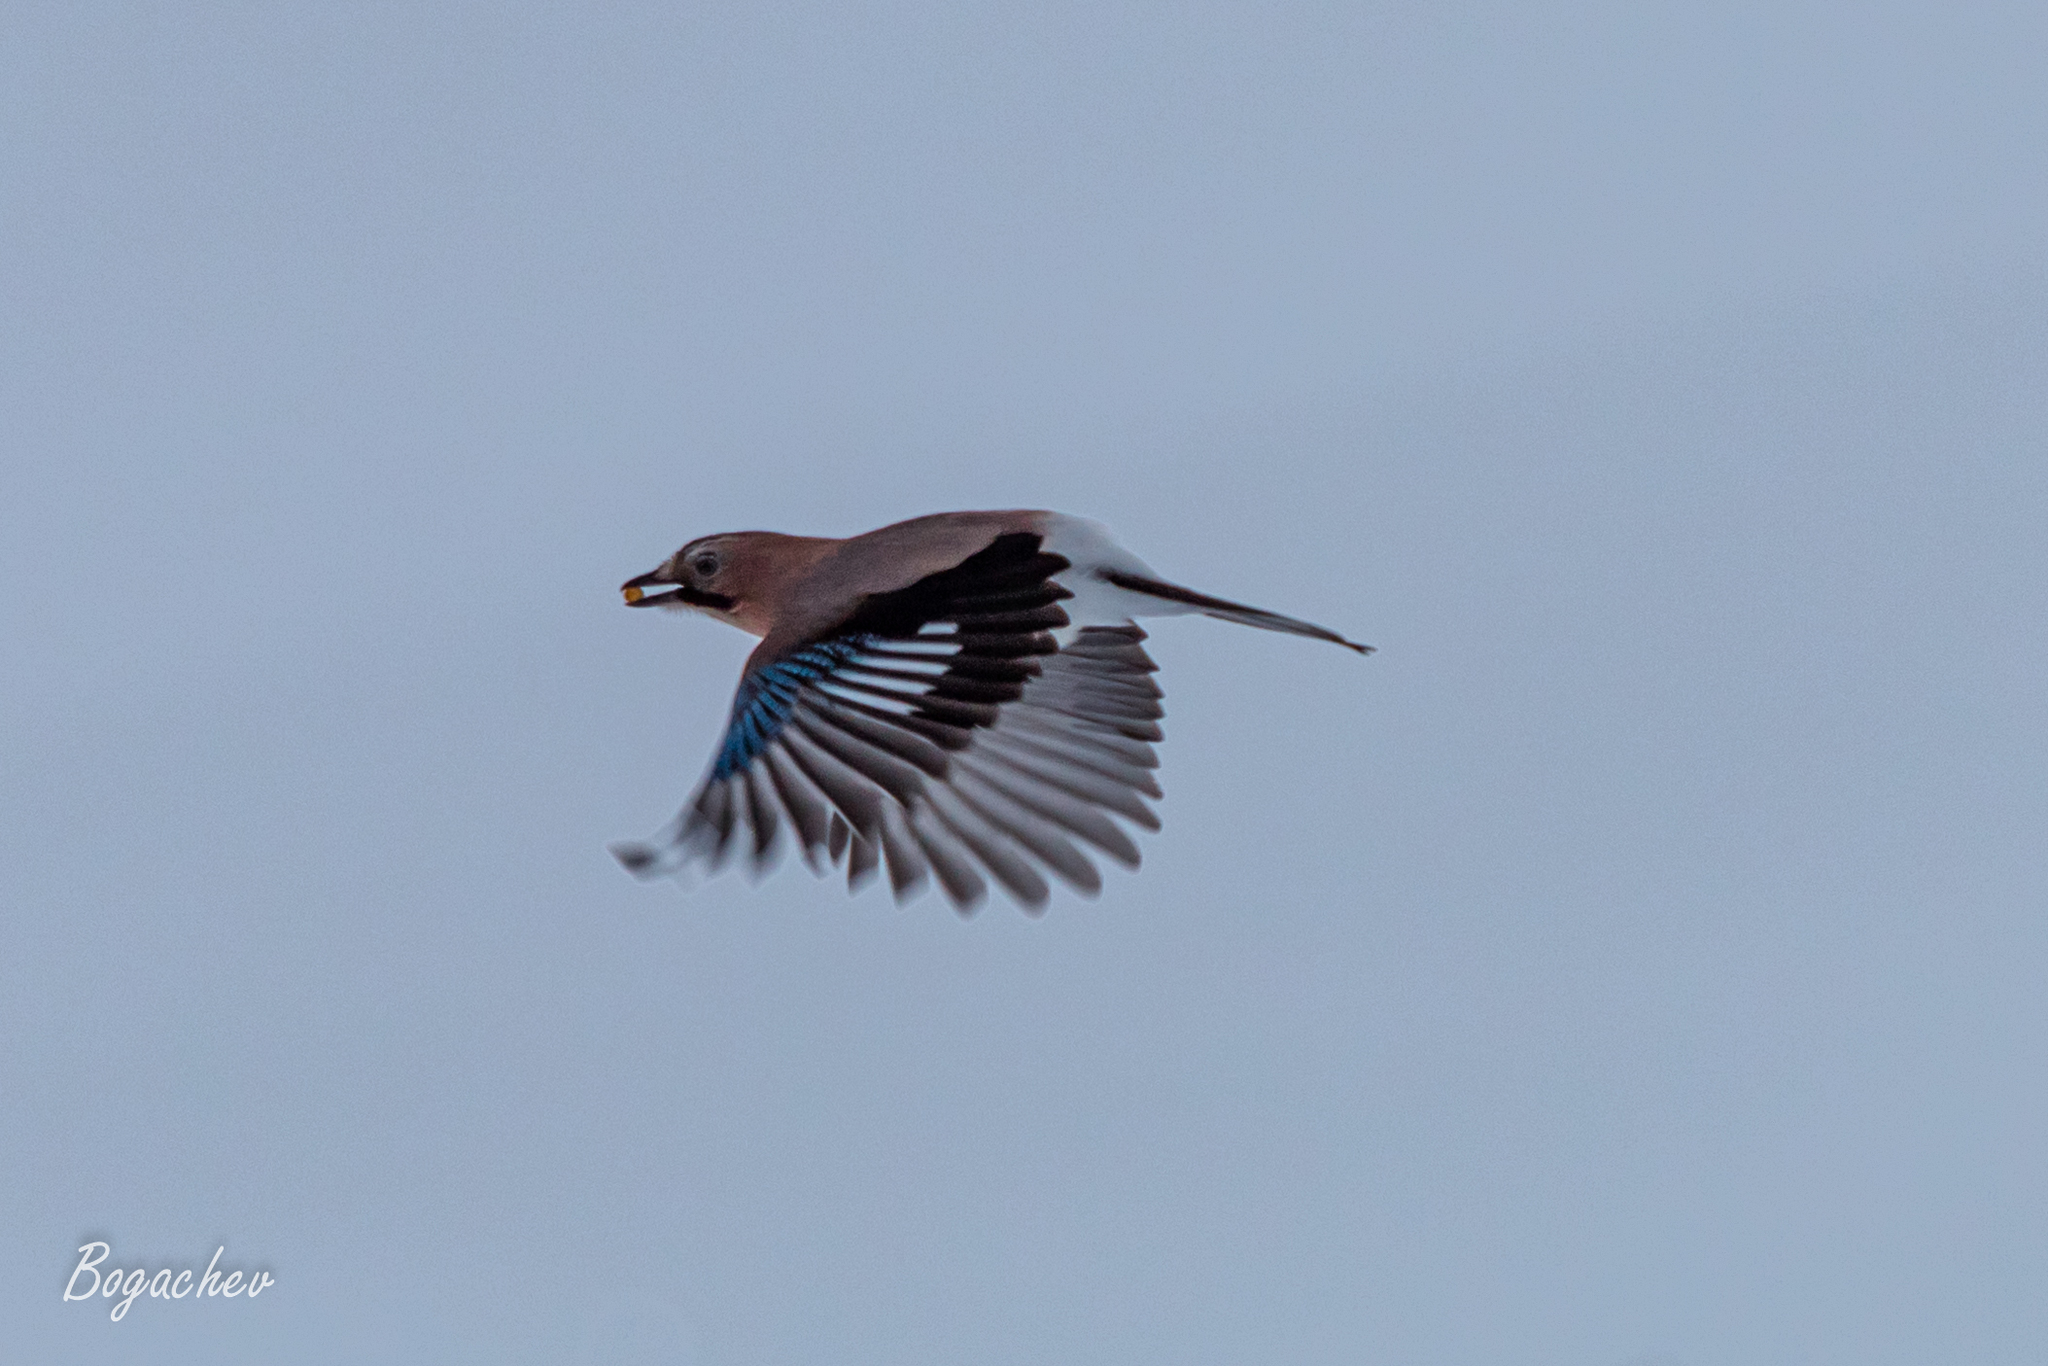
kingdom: Animalia
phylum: Chordata
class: Aves
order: Passeriformes
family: Corvidae
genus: Garrulus
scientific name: Garrulus glandarius
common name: Eurasian jay
